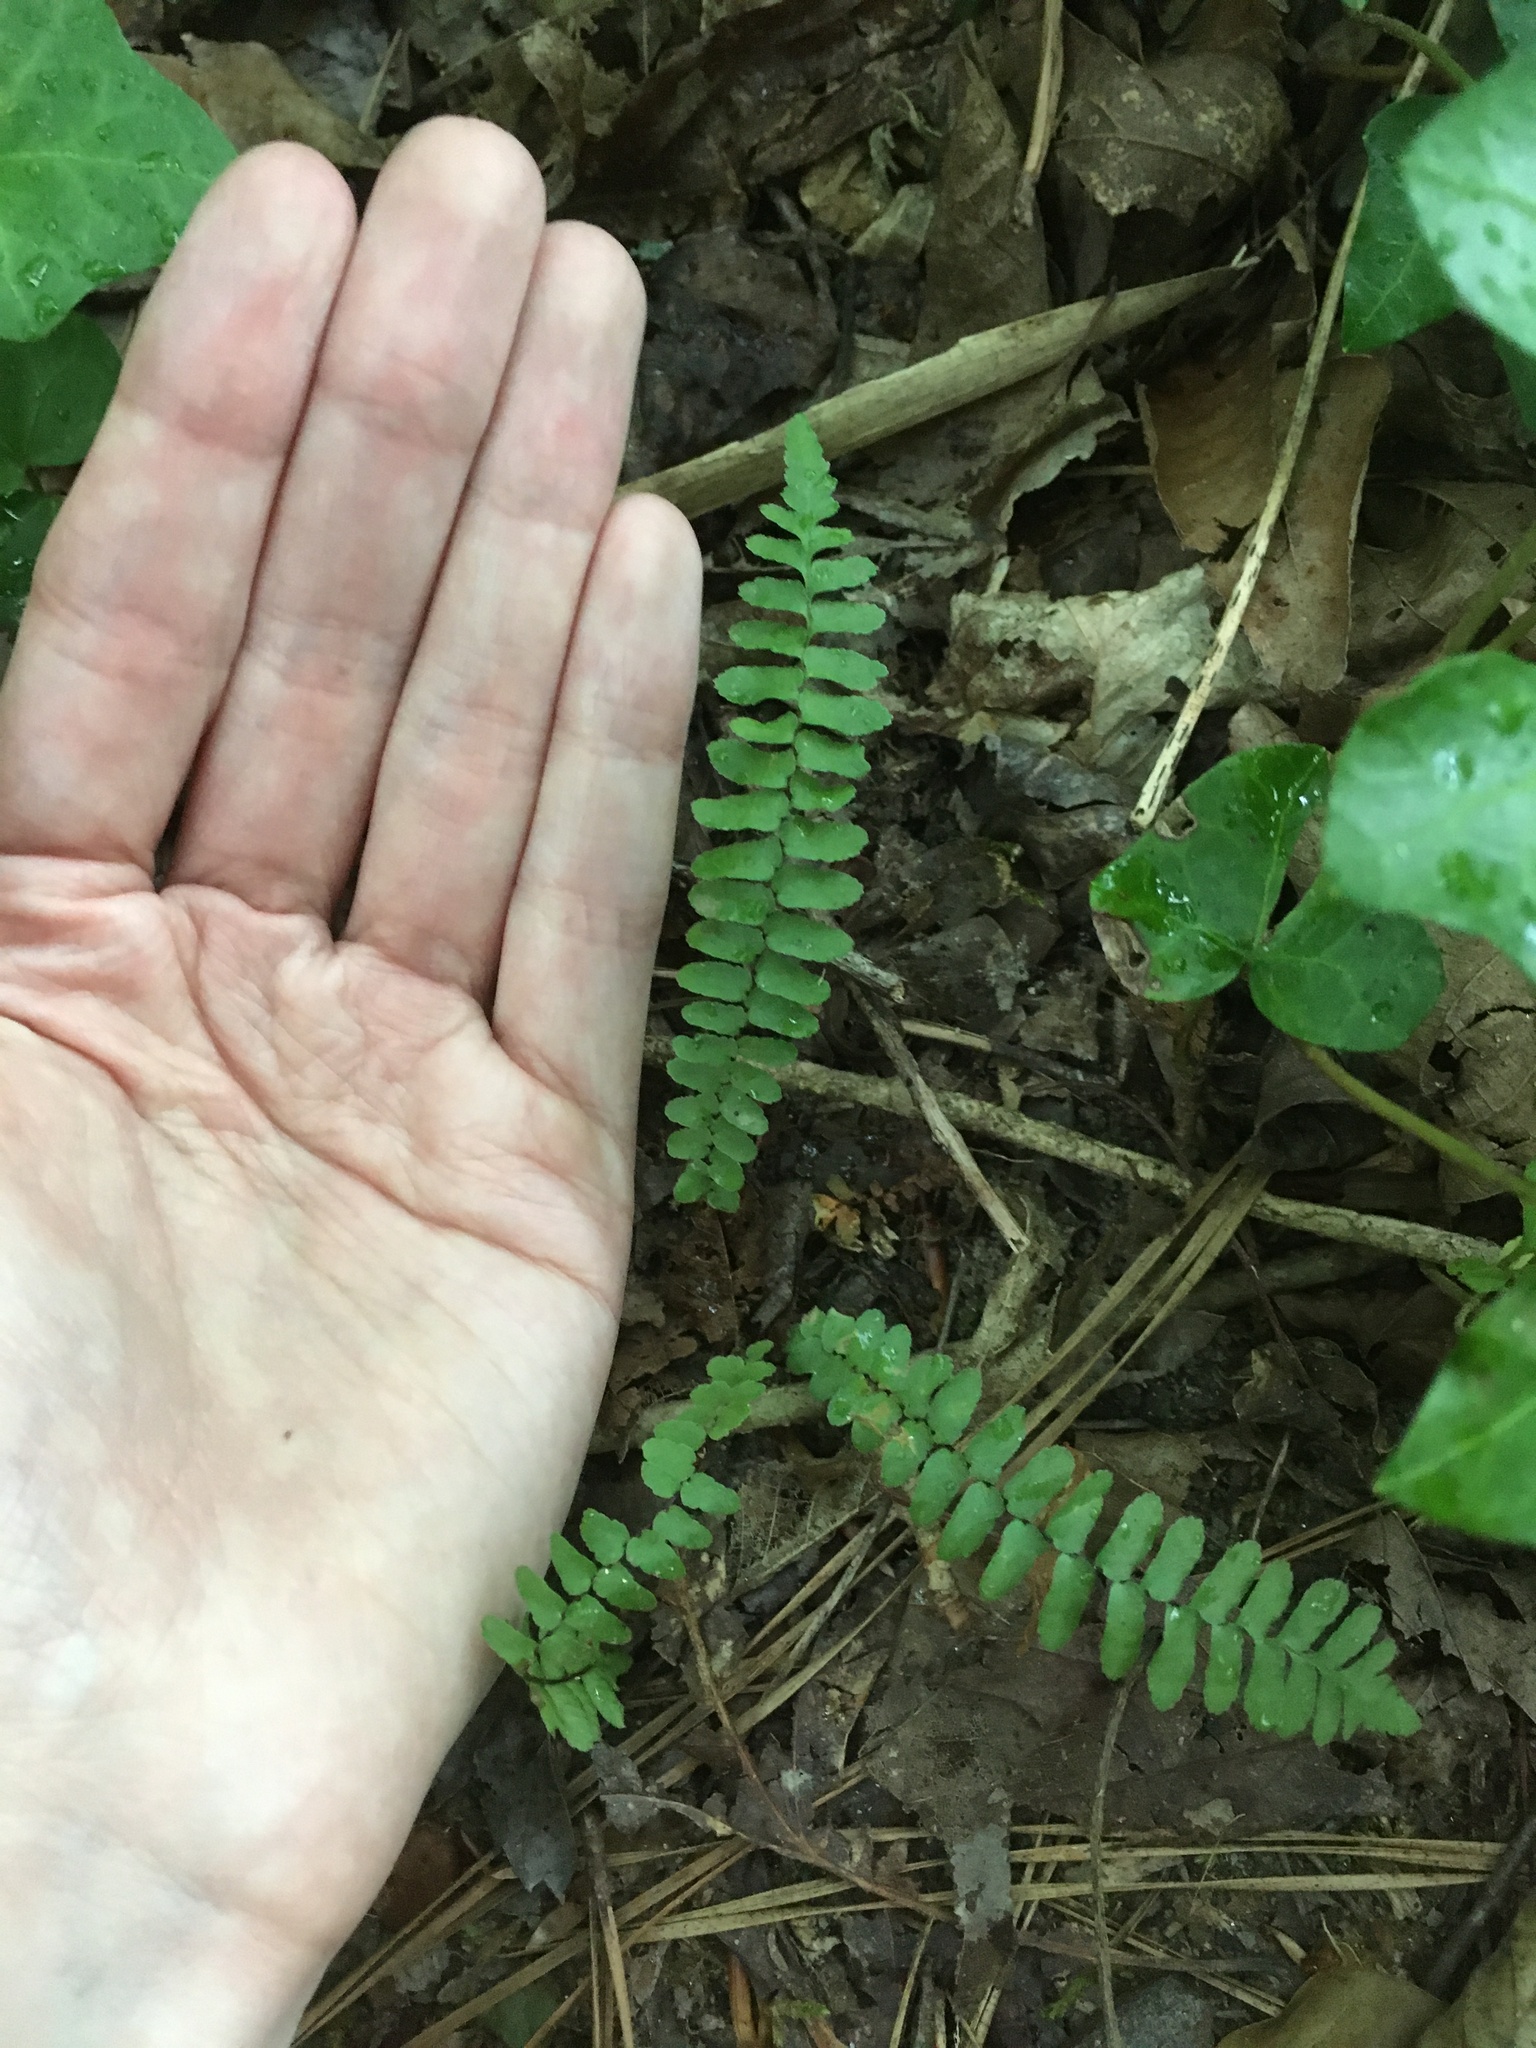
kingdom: Plantae
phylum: Tracheophyta
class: Polypodiopsida
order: Polypodiales
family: Aspleniaceae
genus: Asplenium
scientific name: Asplenium platyneuron
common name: Ebony spleenwort
